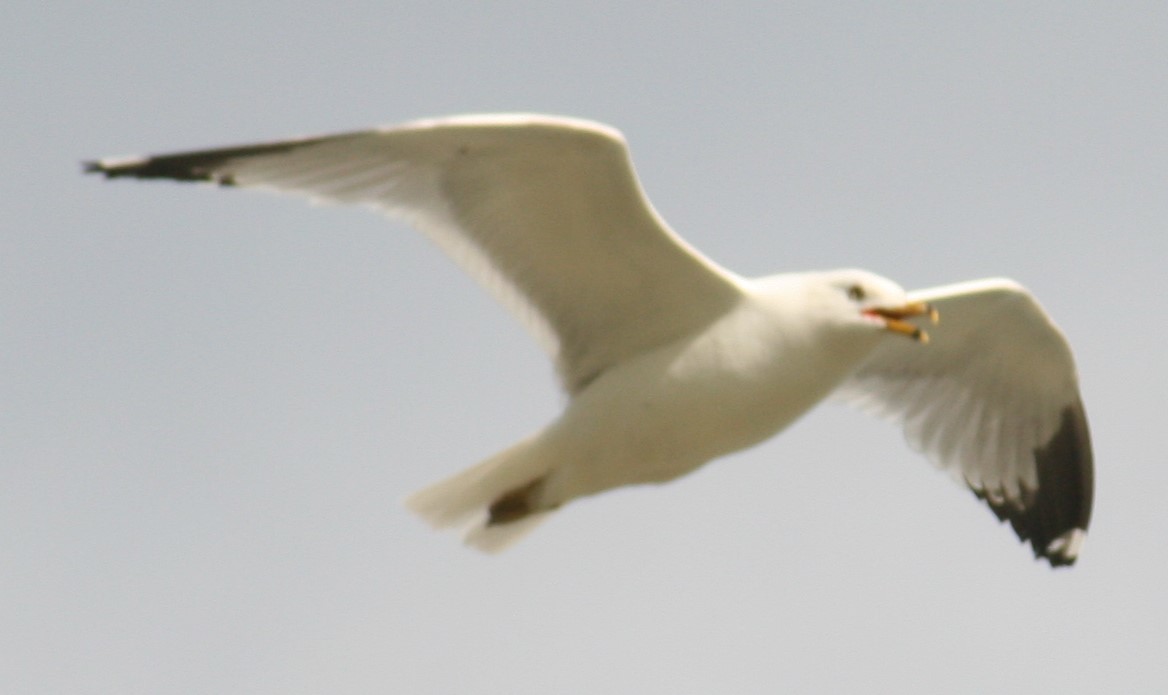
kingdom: Animalia
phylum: Chordata
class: Aves
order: Charadriiformes
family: Laridae
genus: Larus
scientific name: Larus delawarensis
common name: Ring-billed gull
